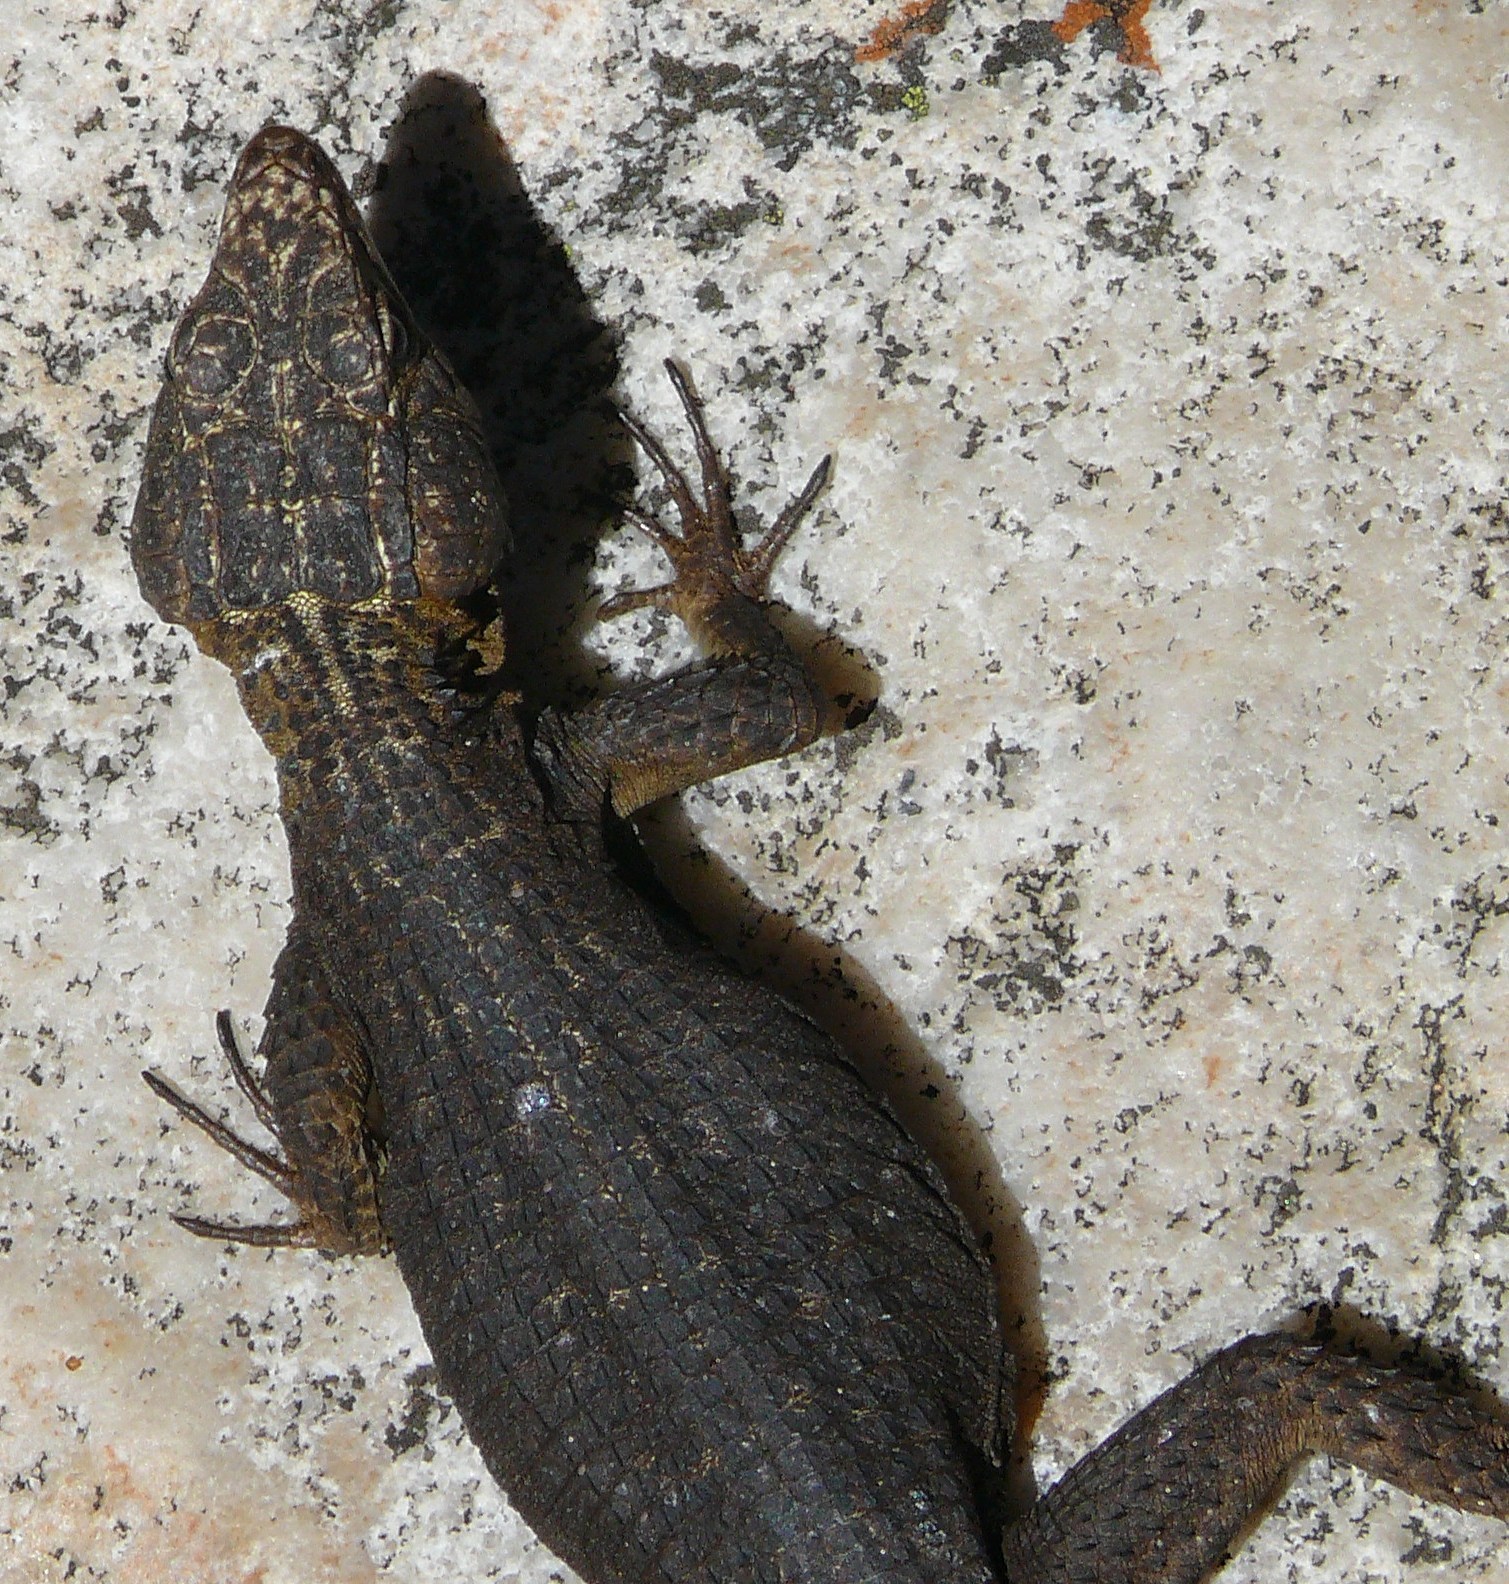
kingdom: Animalia
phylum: Chordata
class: Squamata
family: Cordylidae
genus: Hemicordylus
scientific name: Hemicordylus capensis
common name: Graceful crag lizard
